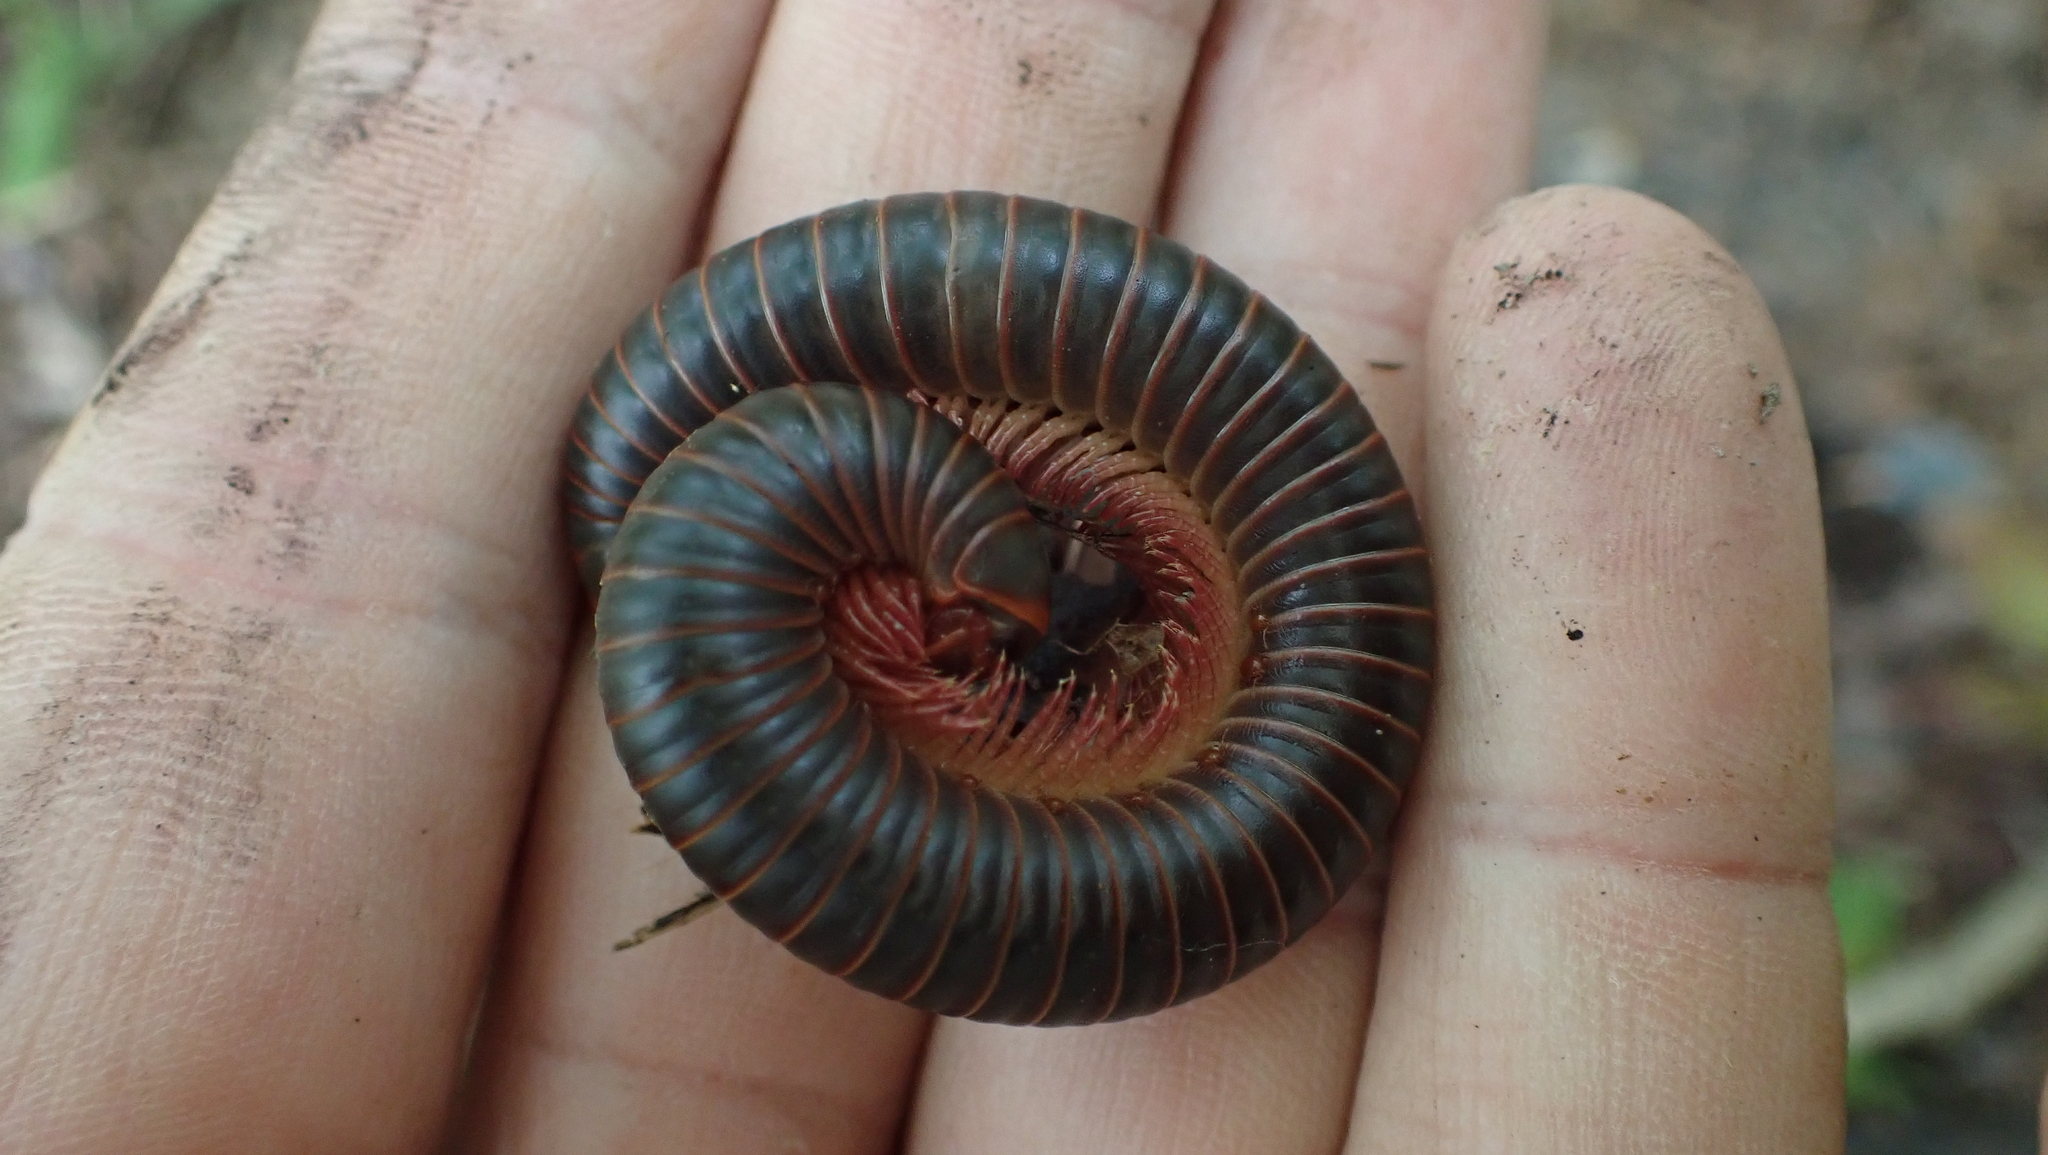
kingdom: Animalia
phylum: Arthropoda
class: Diplopoda
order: Spirobolida
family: Spirobolidae
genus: Narceus
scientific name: Narceus
